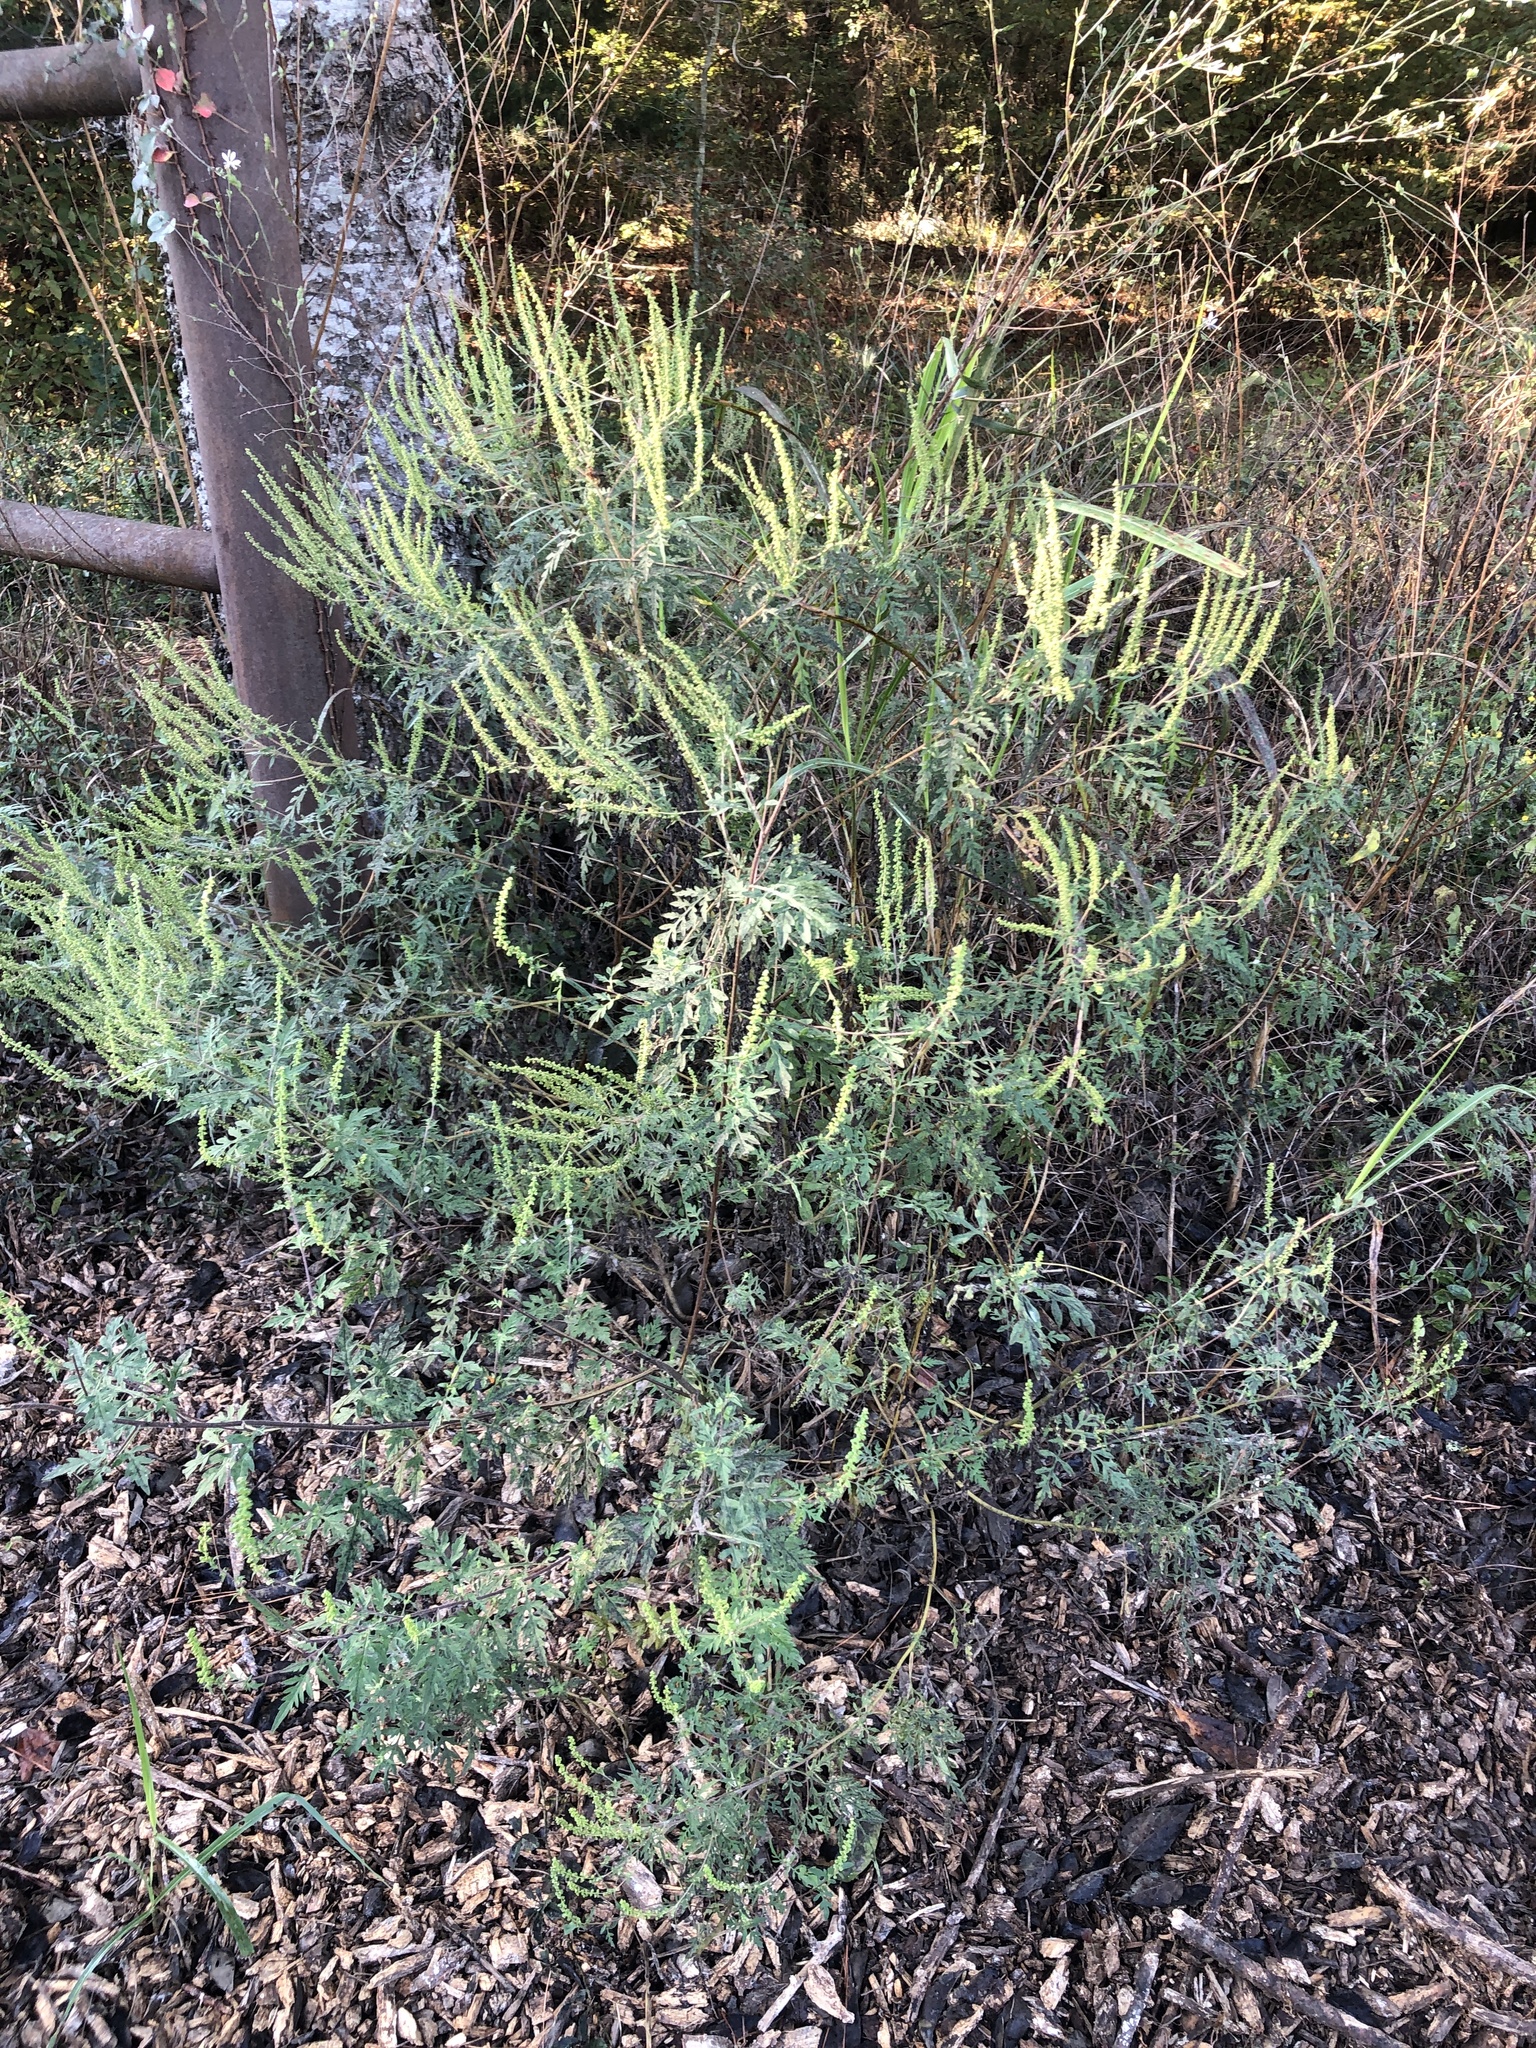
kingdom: Plantae
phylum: Tracheophyta
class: Magnoliopsida
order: Asterales
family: Asteraceae
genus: Ambrosia
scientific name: Ambrosia artemisiifolia
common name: Annual ragweed
